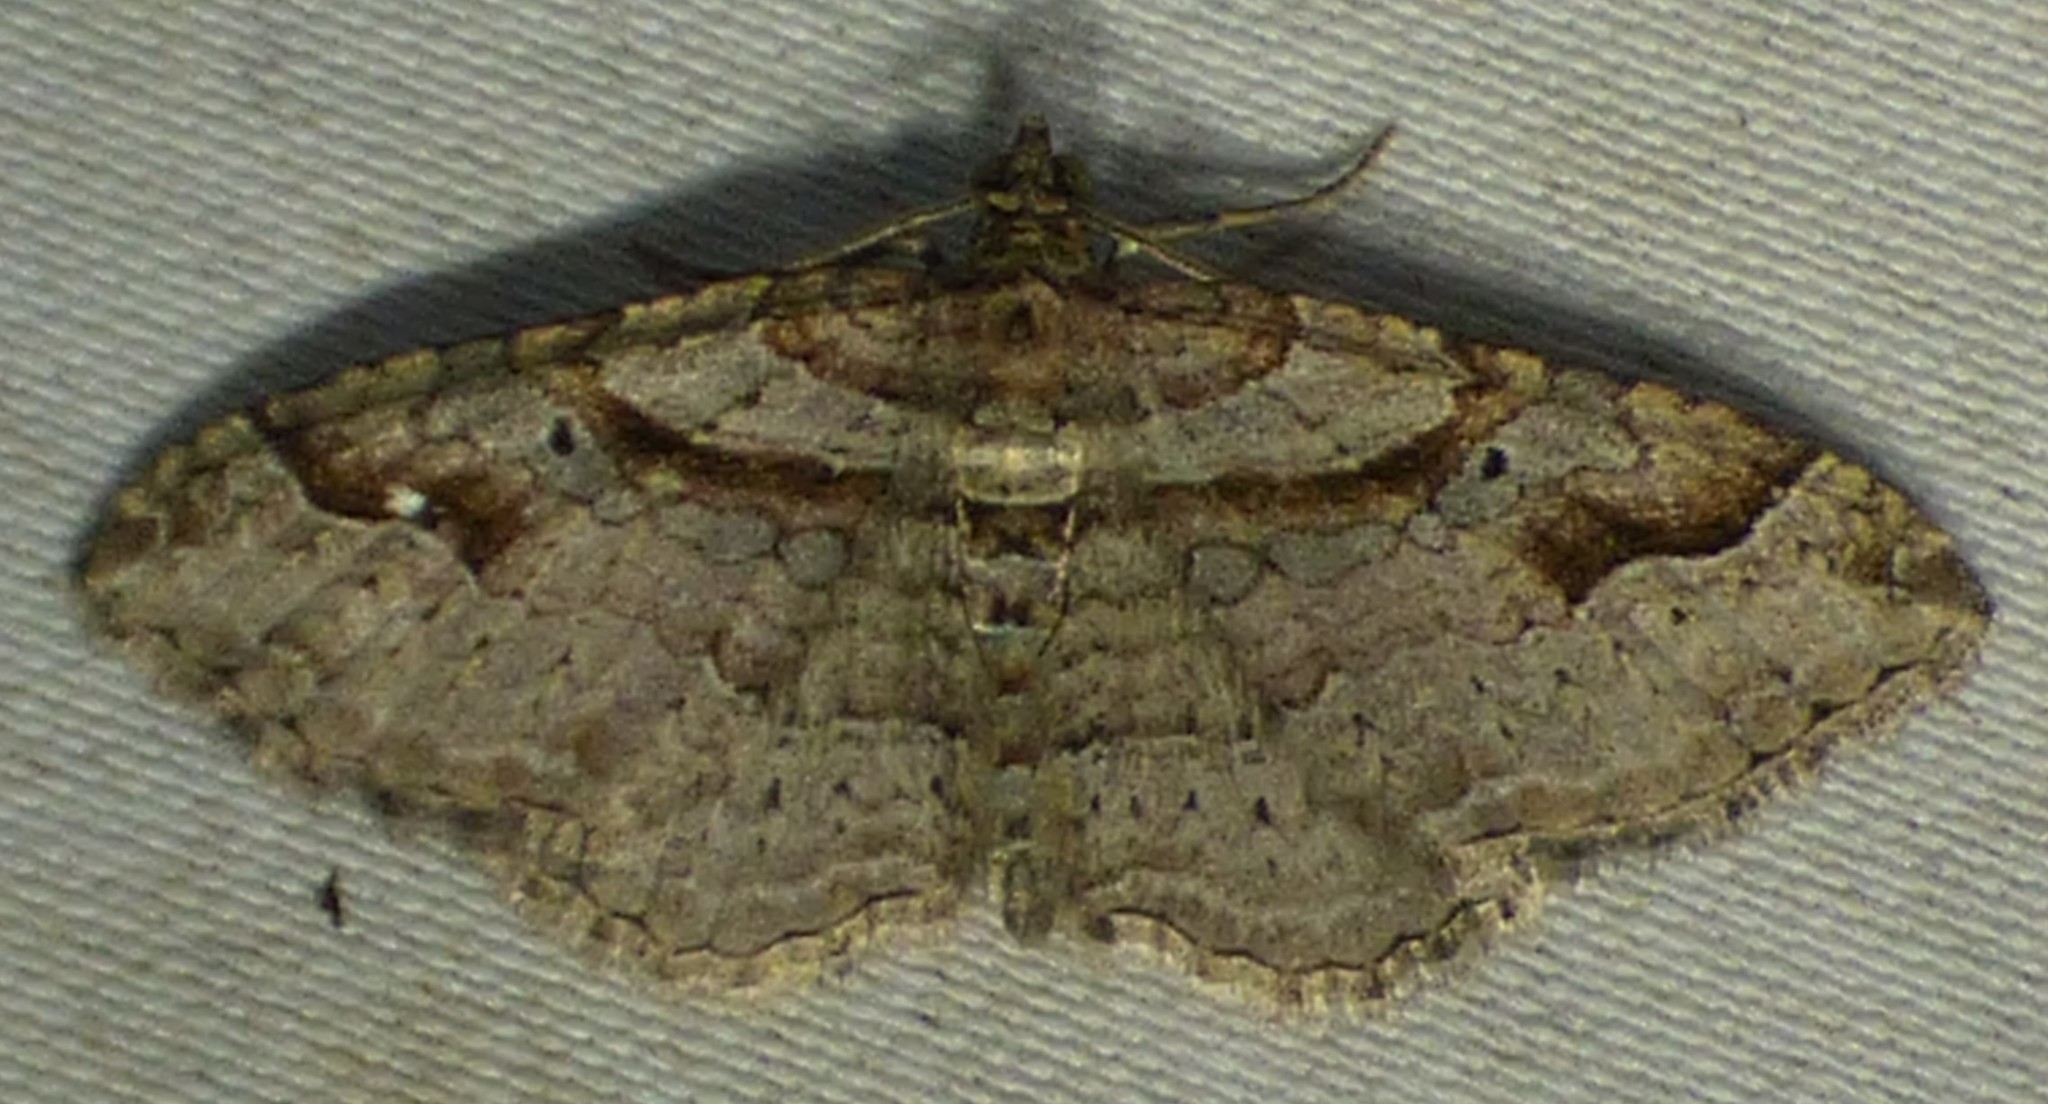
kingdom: Animalia
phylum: Arthropoda
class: Insecta
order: Lepidoptera
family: Geometridae
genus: Costaconvexa
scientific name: Costaconvexa centrostrigaria
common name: Bent-line carpet
